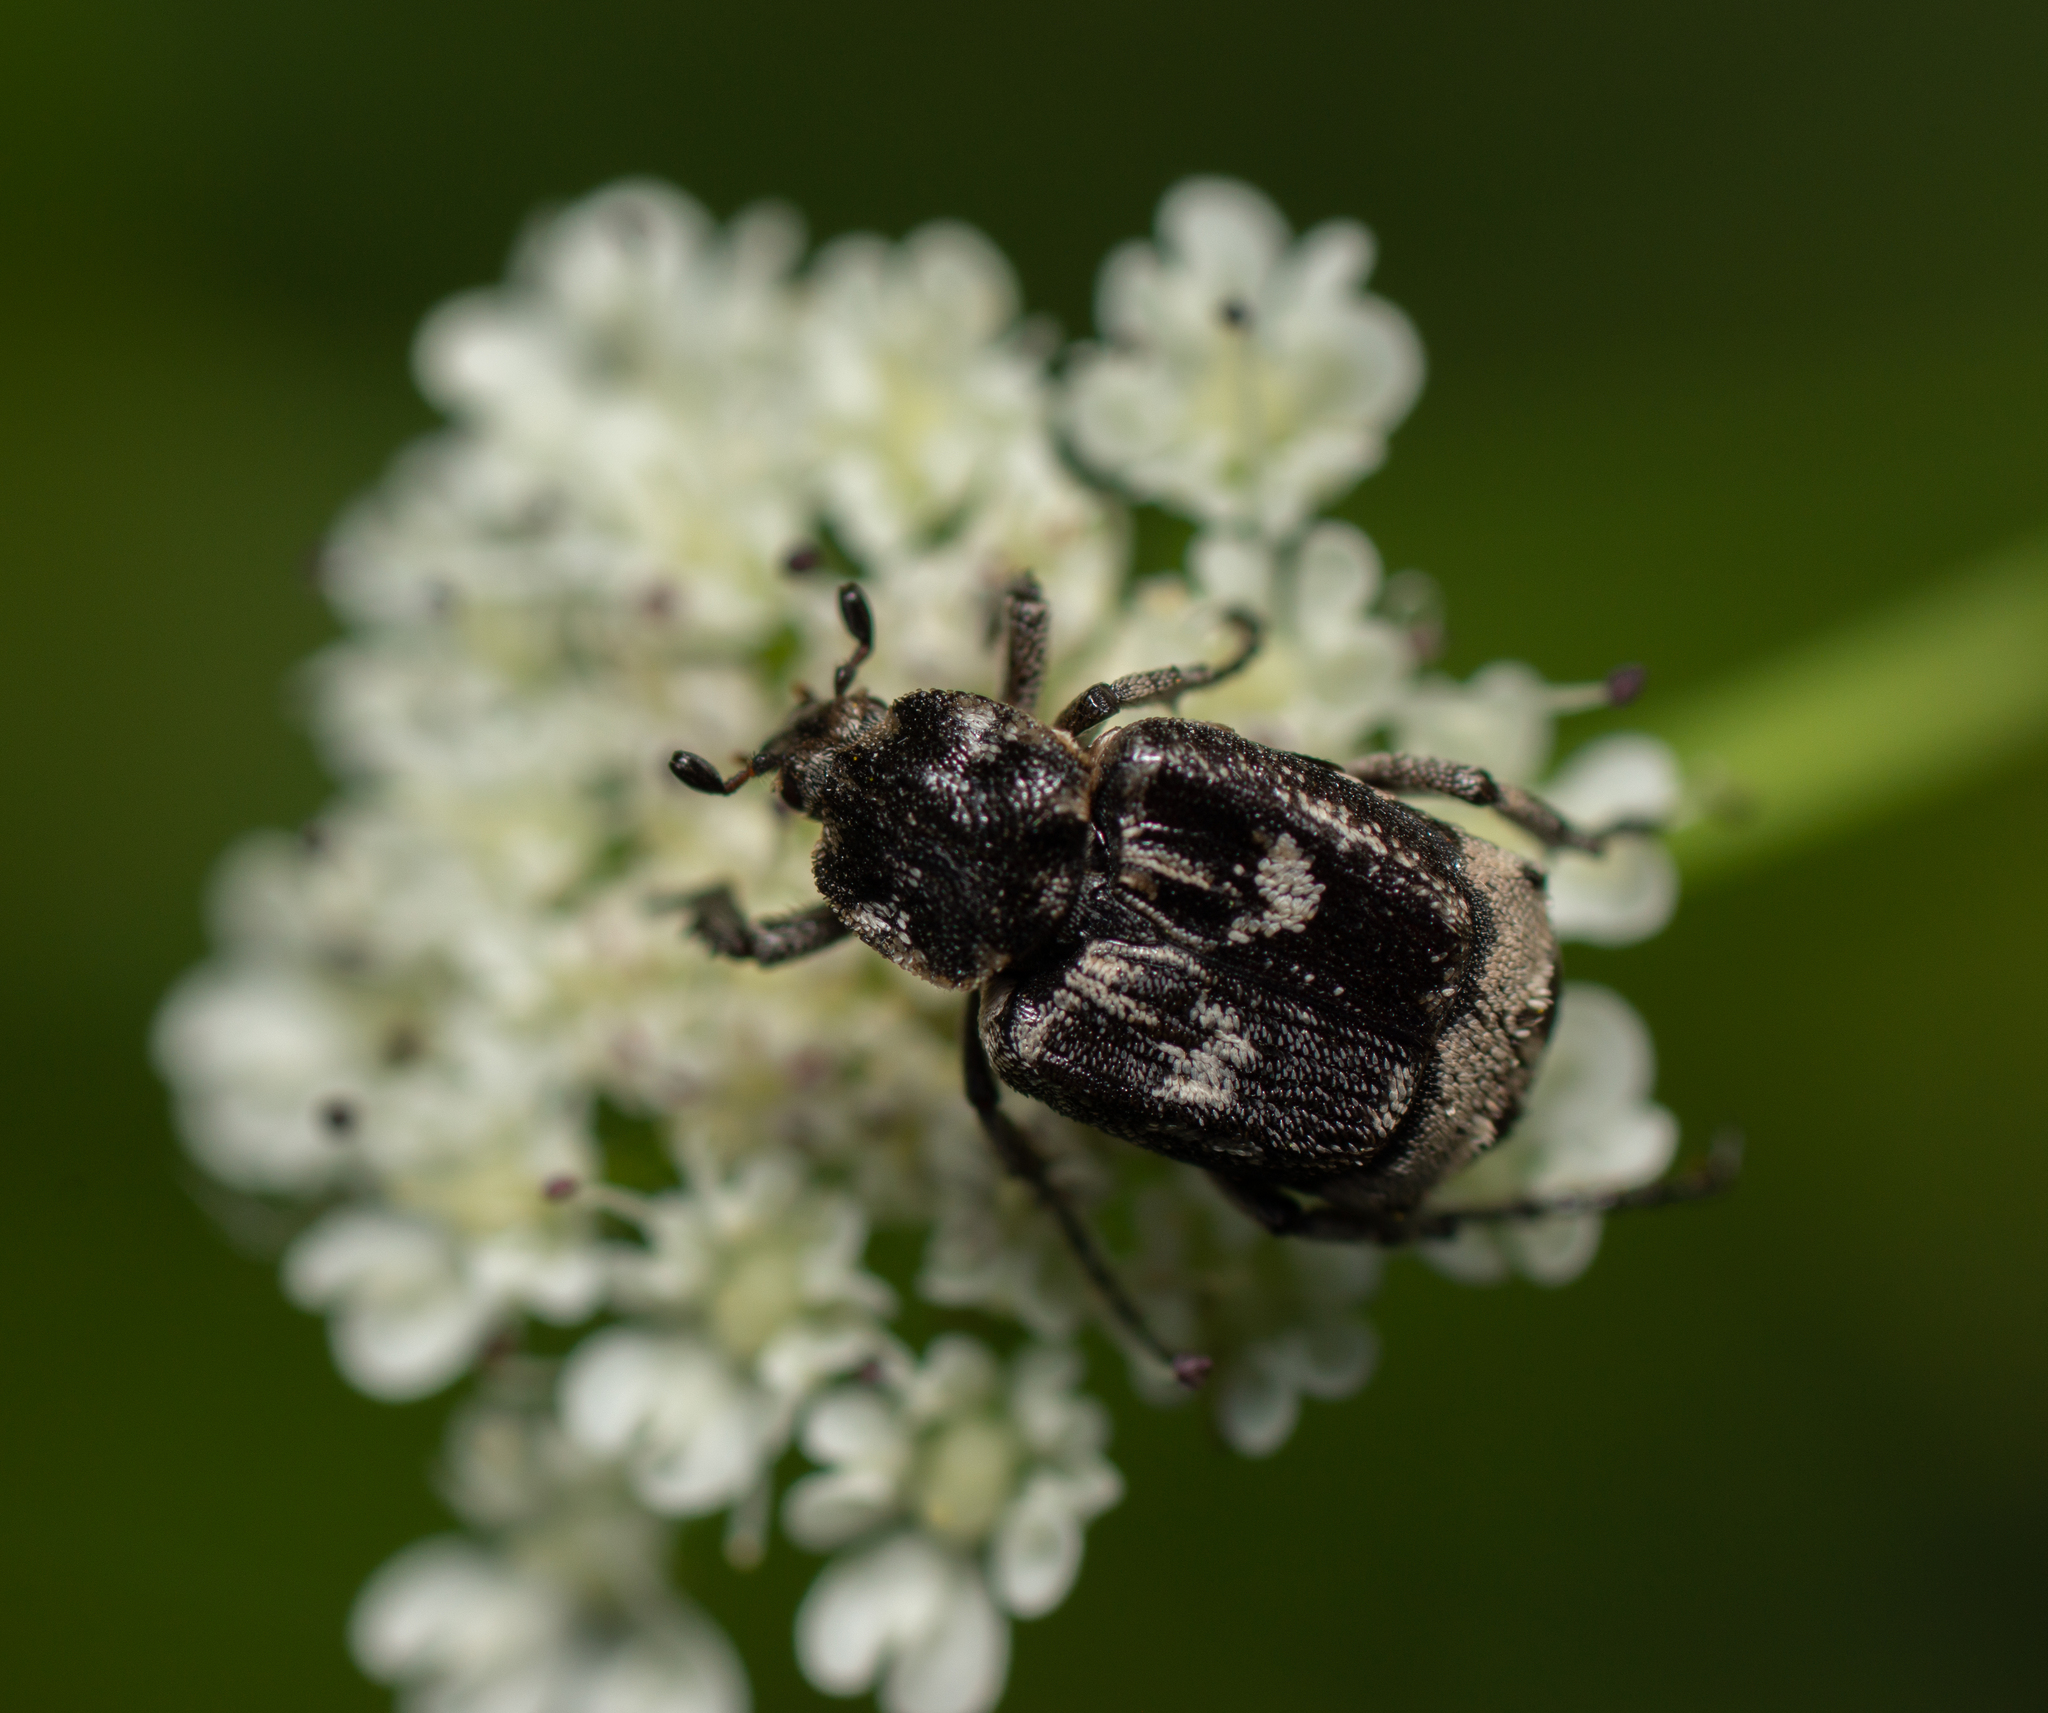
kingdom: Animalia
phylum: Arthropoda
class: Insecta
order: Coleoptera
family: Scarabaeidae
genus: Valgus
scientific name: Valgus hemipterus
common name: Bug flower chafer
